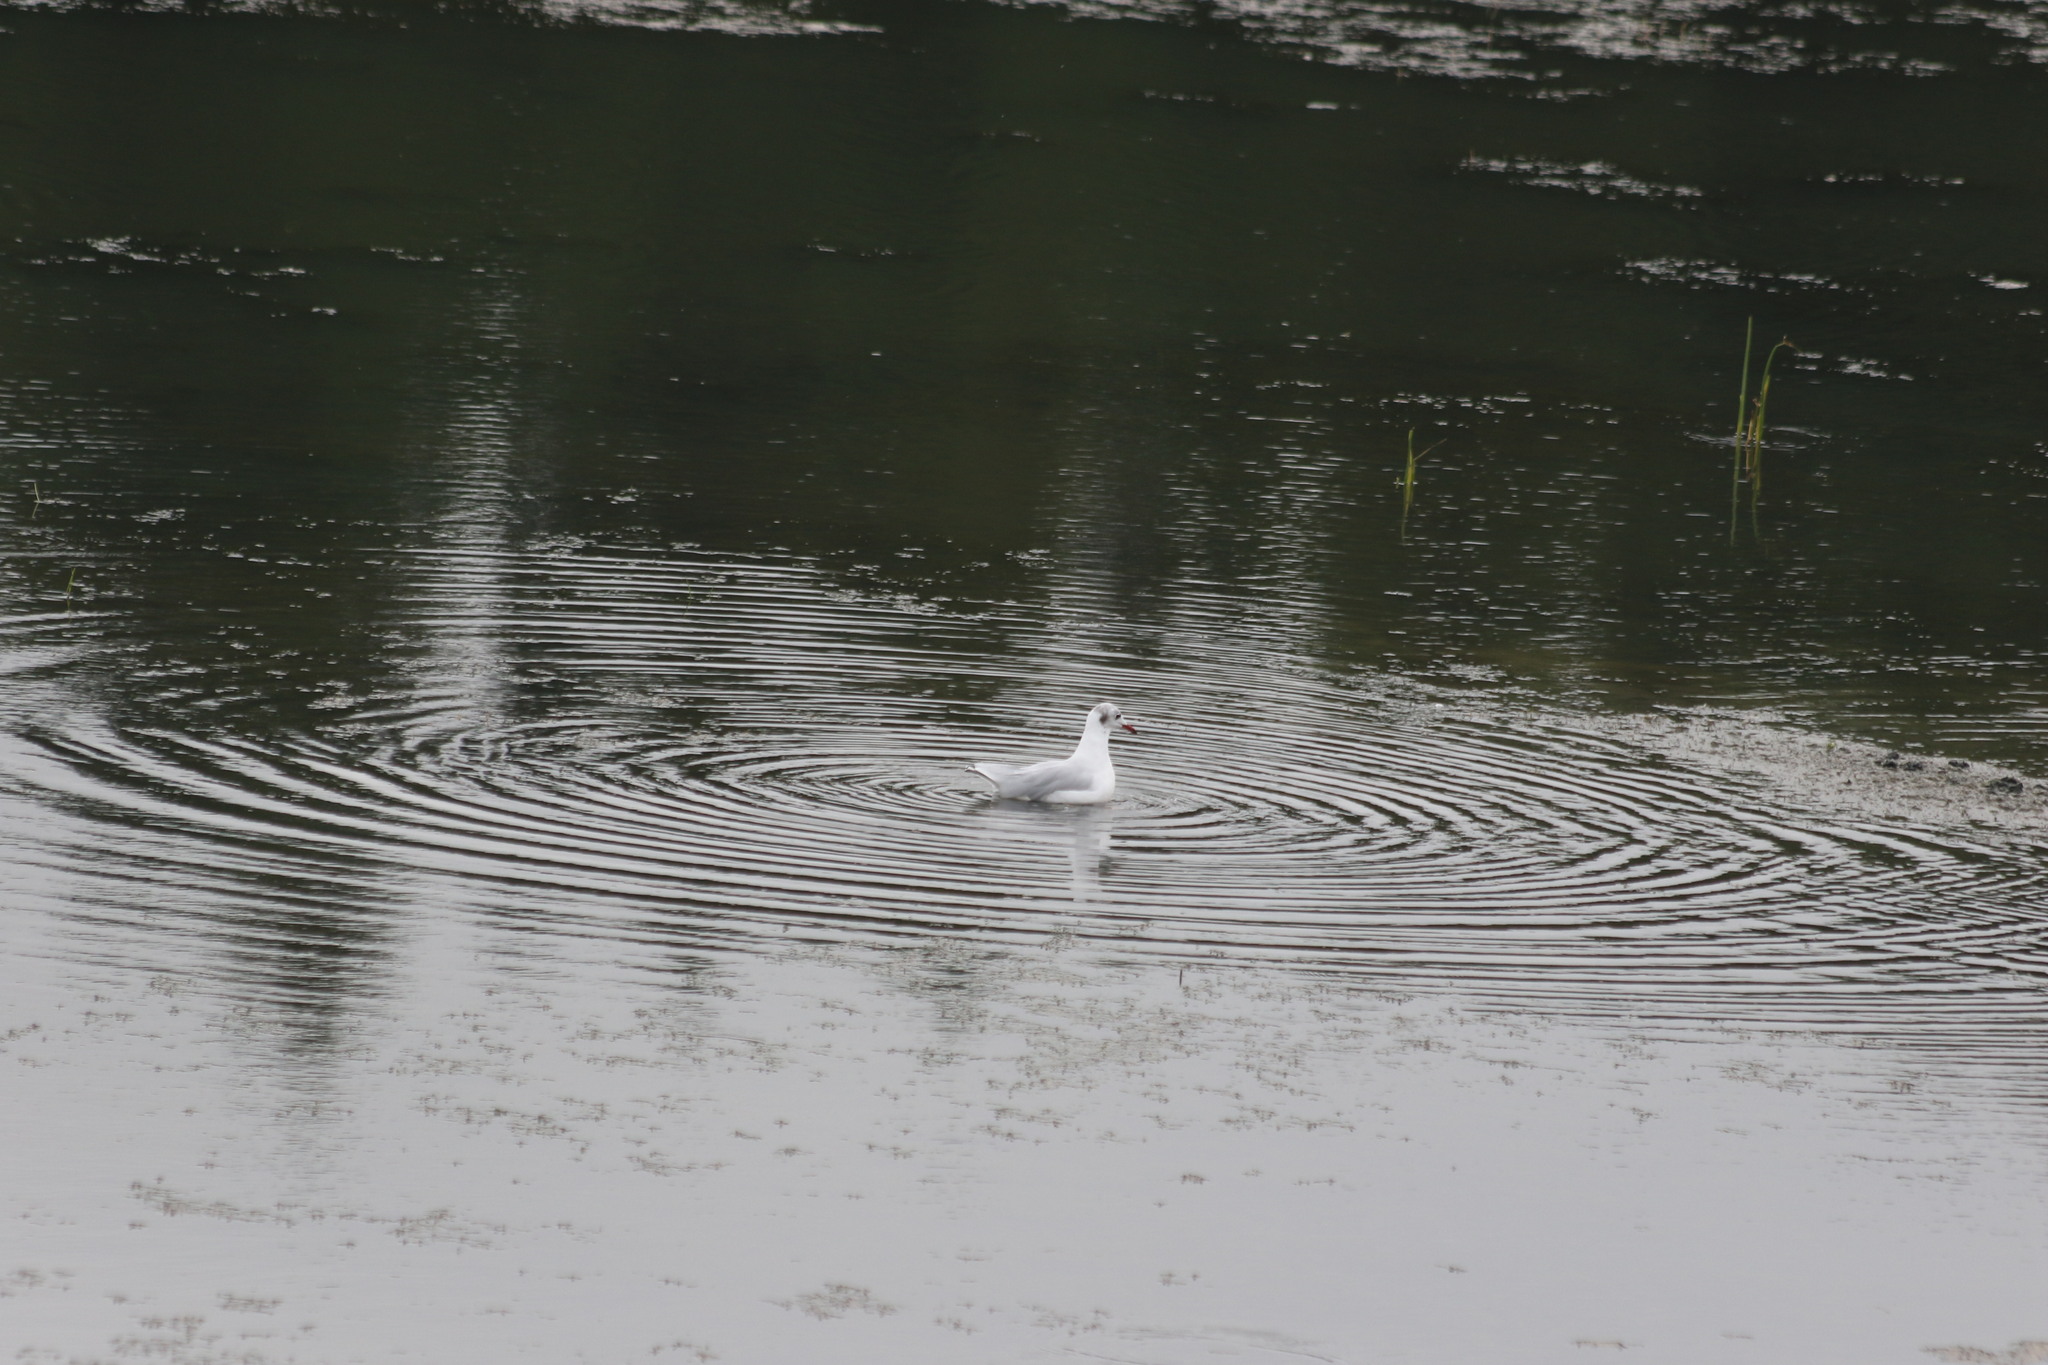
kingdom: Animalia
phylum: Chordata
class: Aves
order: Charadriiformes
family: Laridae
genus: Chroicocephalus
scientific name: Chroicocephalus ridibundus
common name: Black-headed gull
